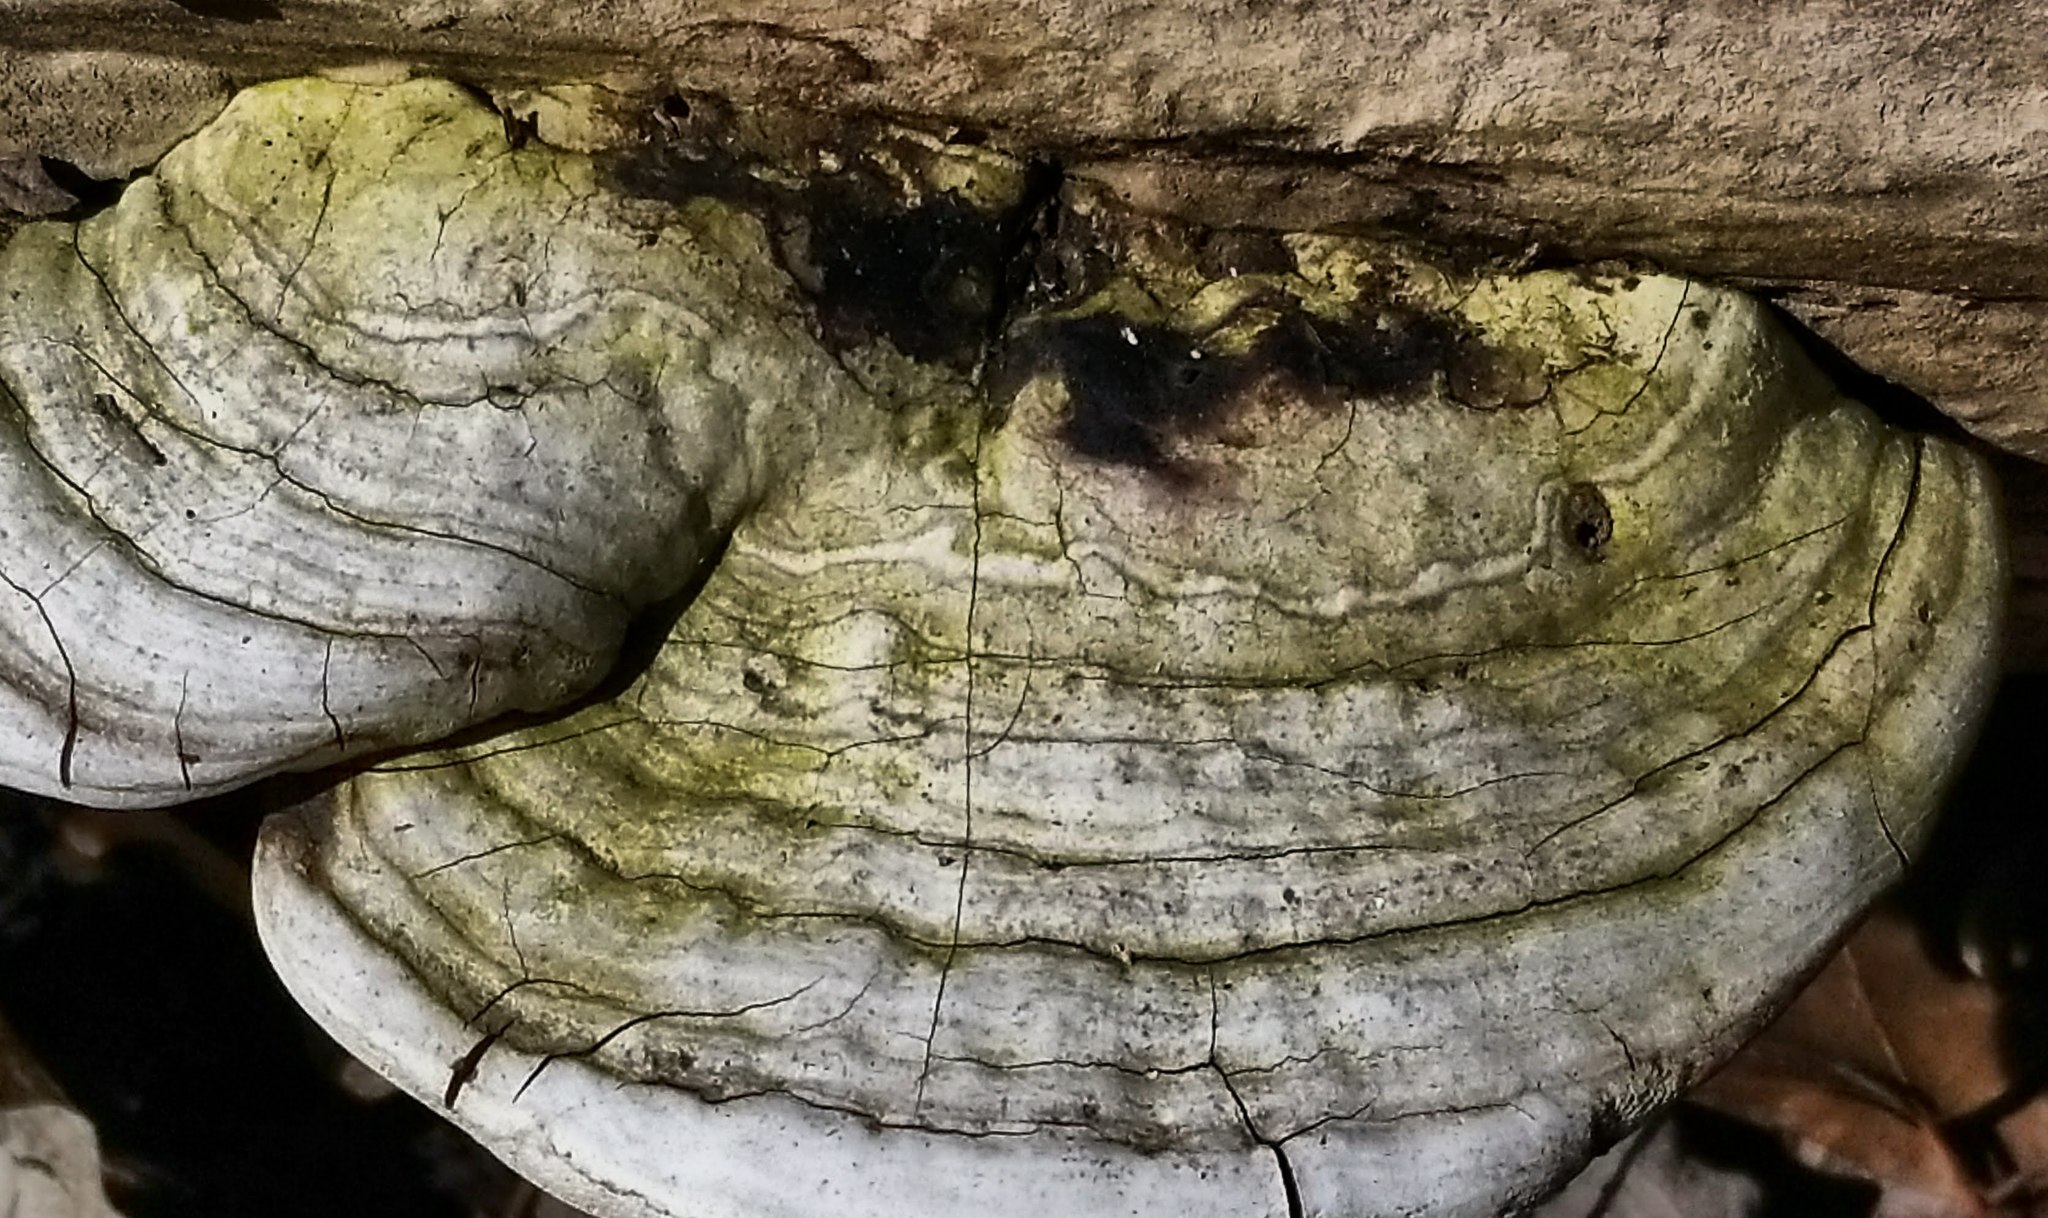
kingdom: Fungi
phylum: Basidiomycota
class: Agaricomycetes
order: Polyporales
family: Polyporaceae
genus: Ganoderma
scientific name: Ganoderma applanatum
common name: Artist's bracket
